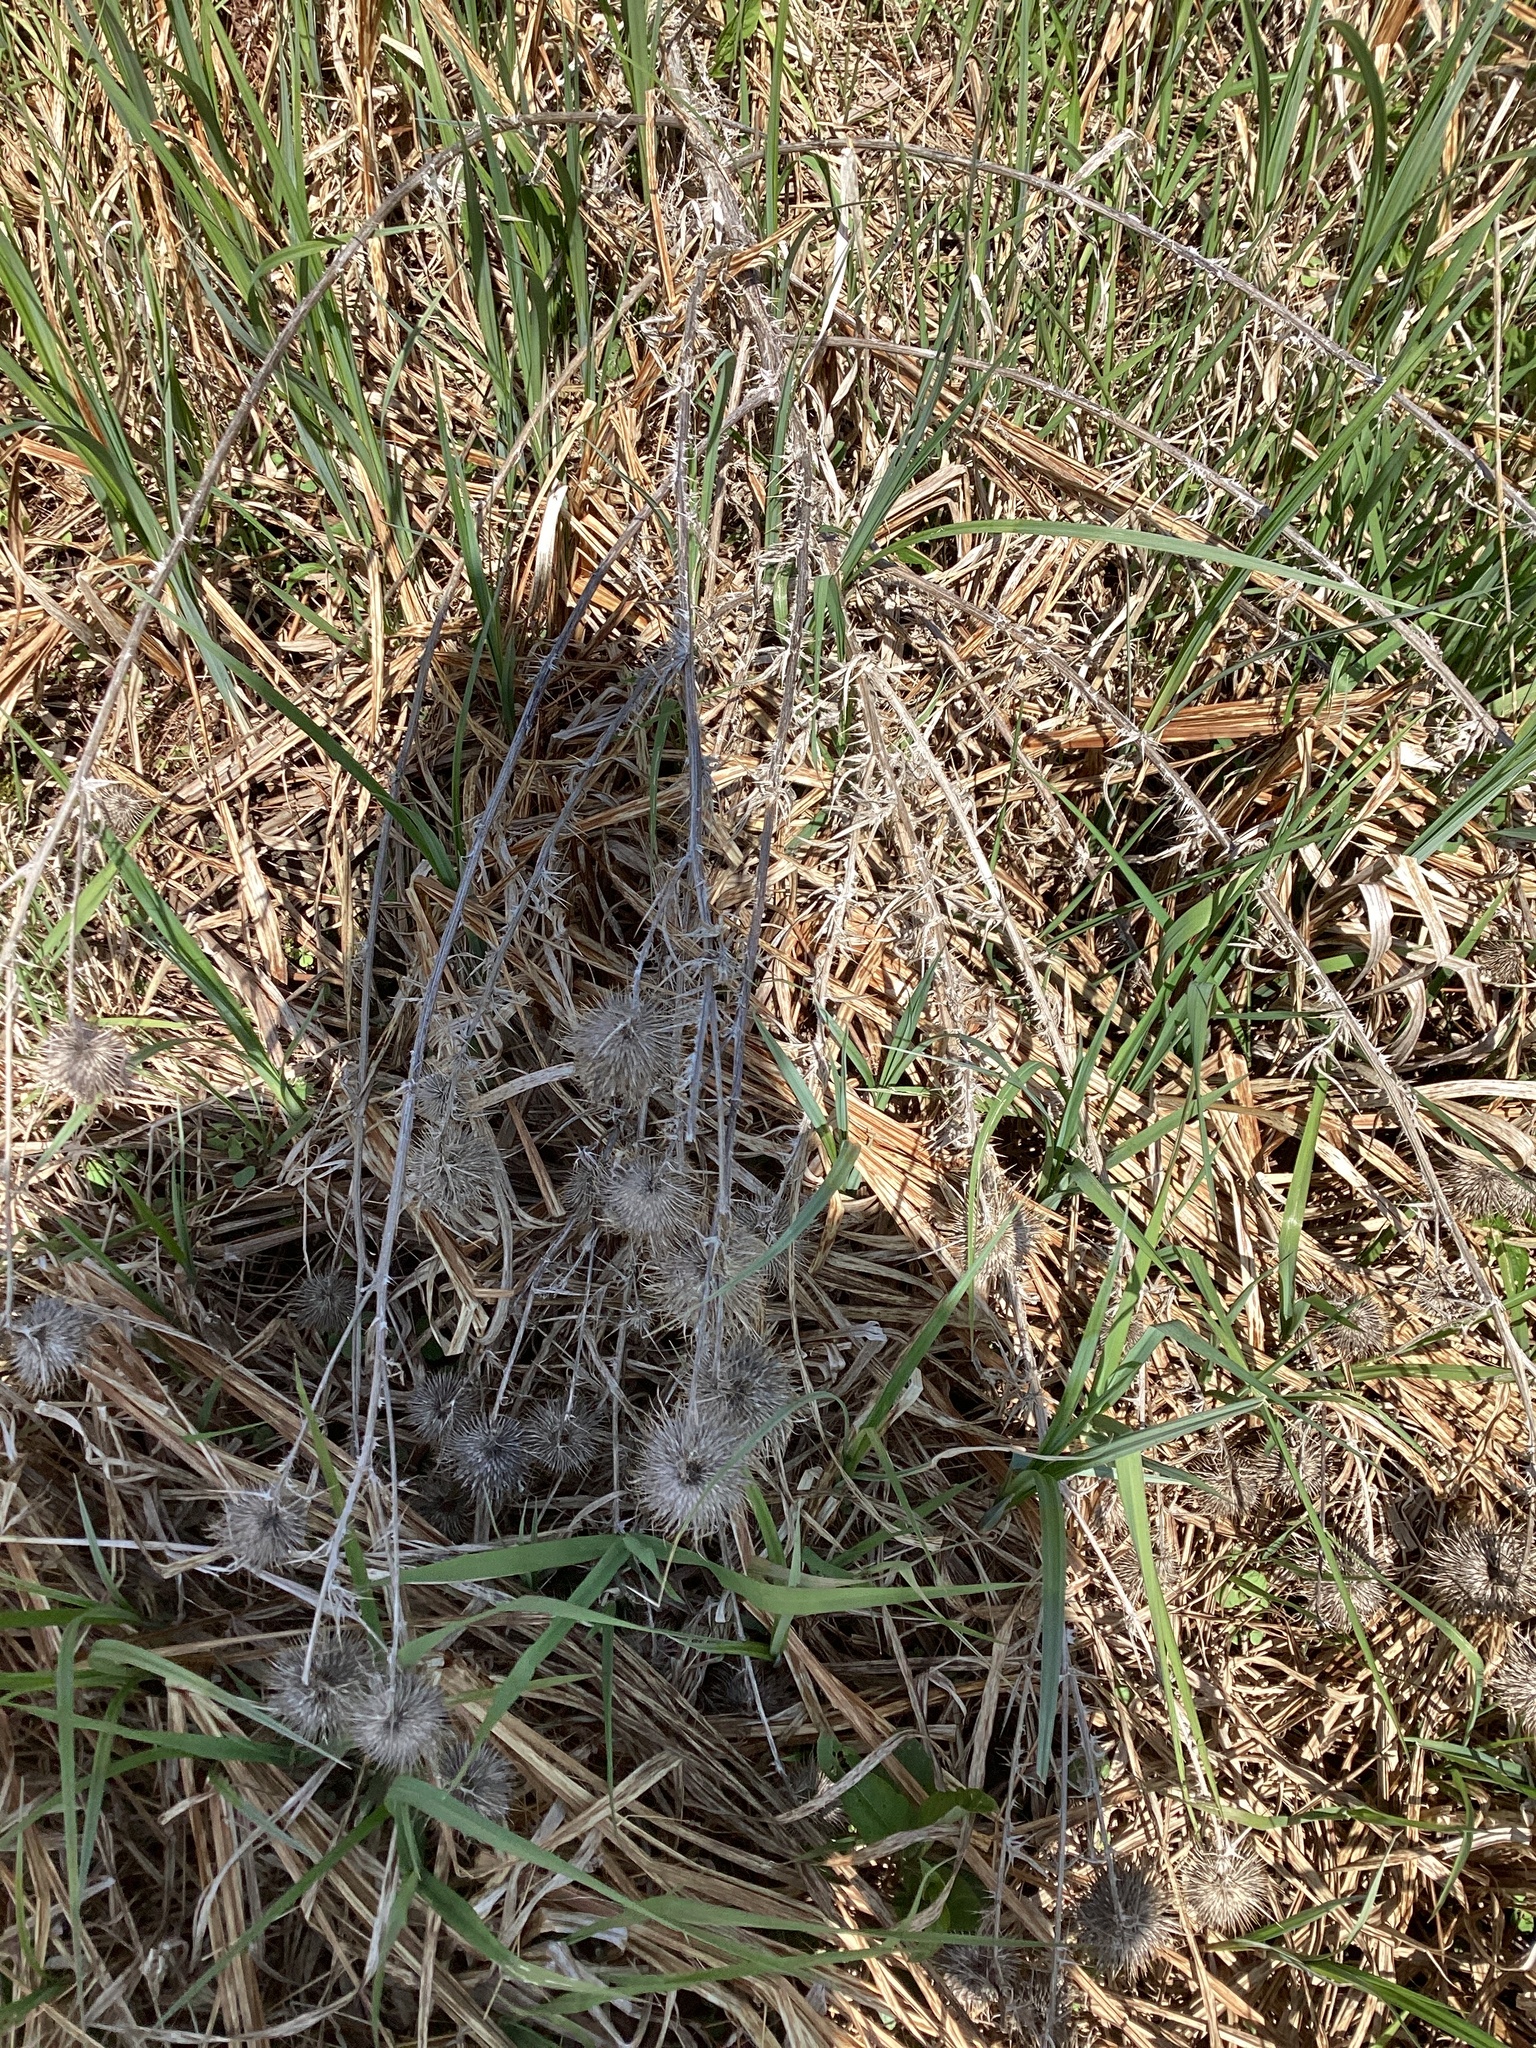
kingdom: Plantae
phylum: Tracheophyta
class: Magnoliopsida
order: Asterales
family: Asteraceae
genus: Cirsium
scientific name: Cirsium vulgare
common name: Bull thistle
